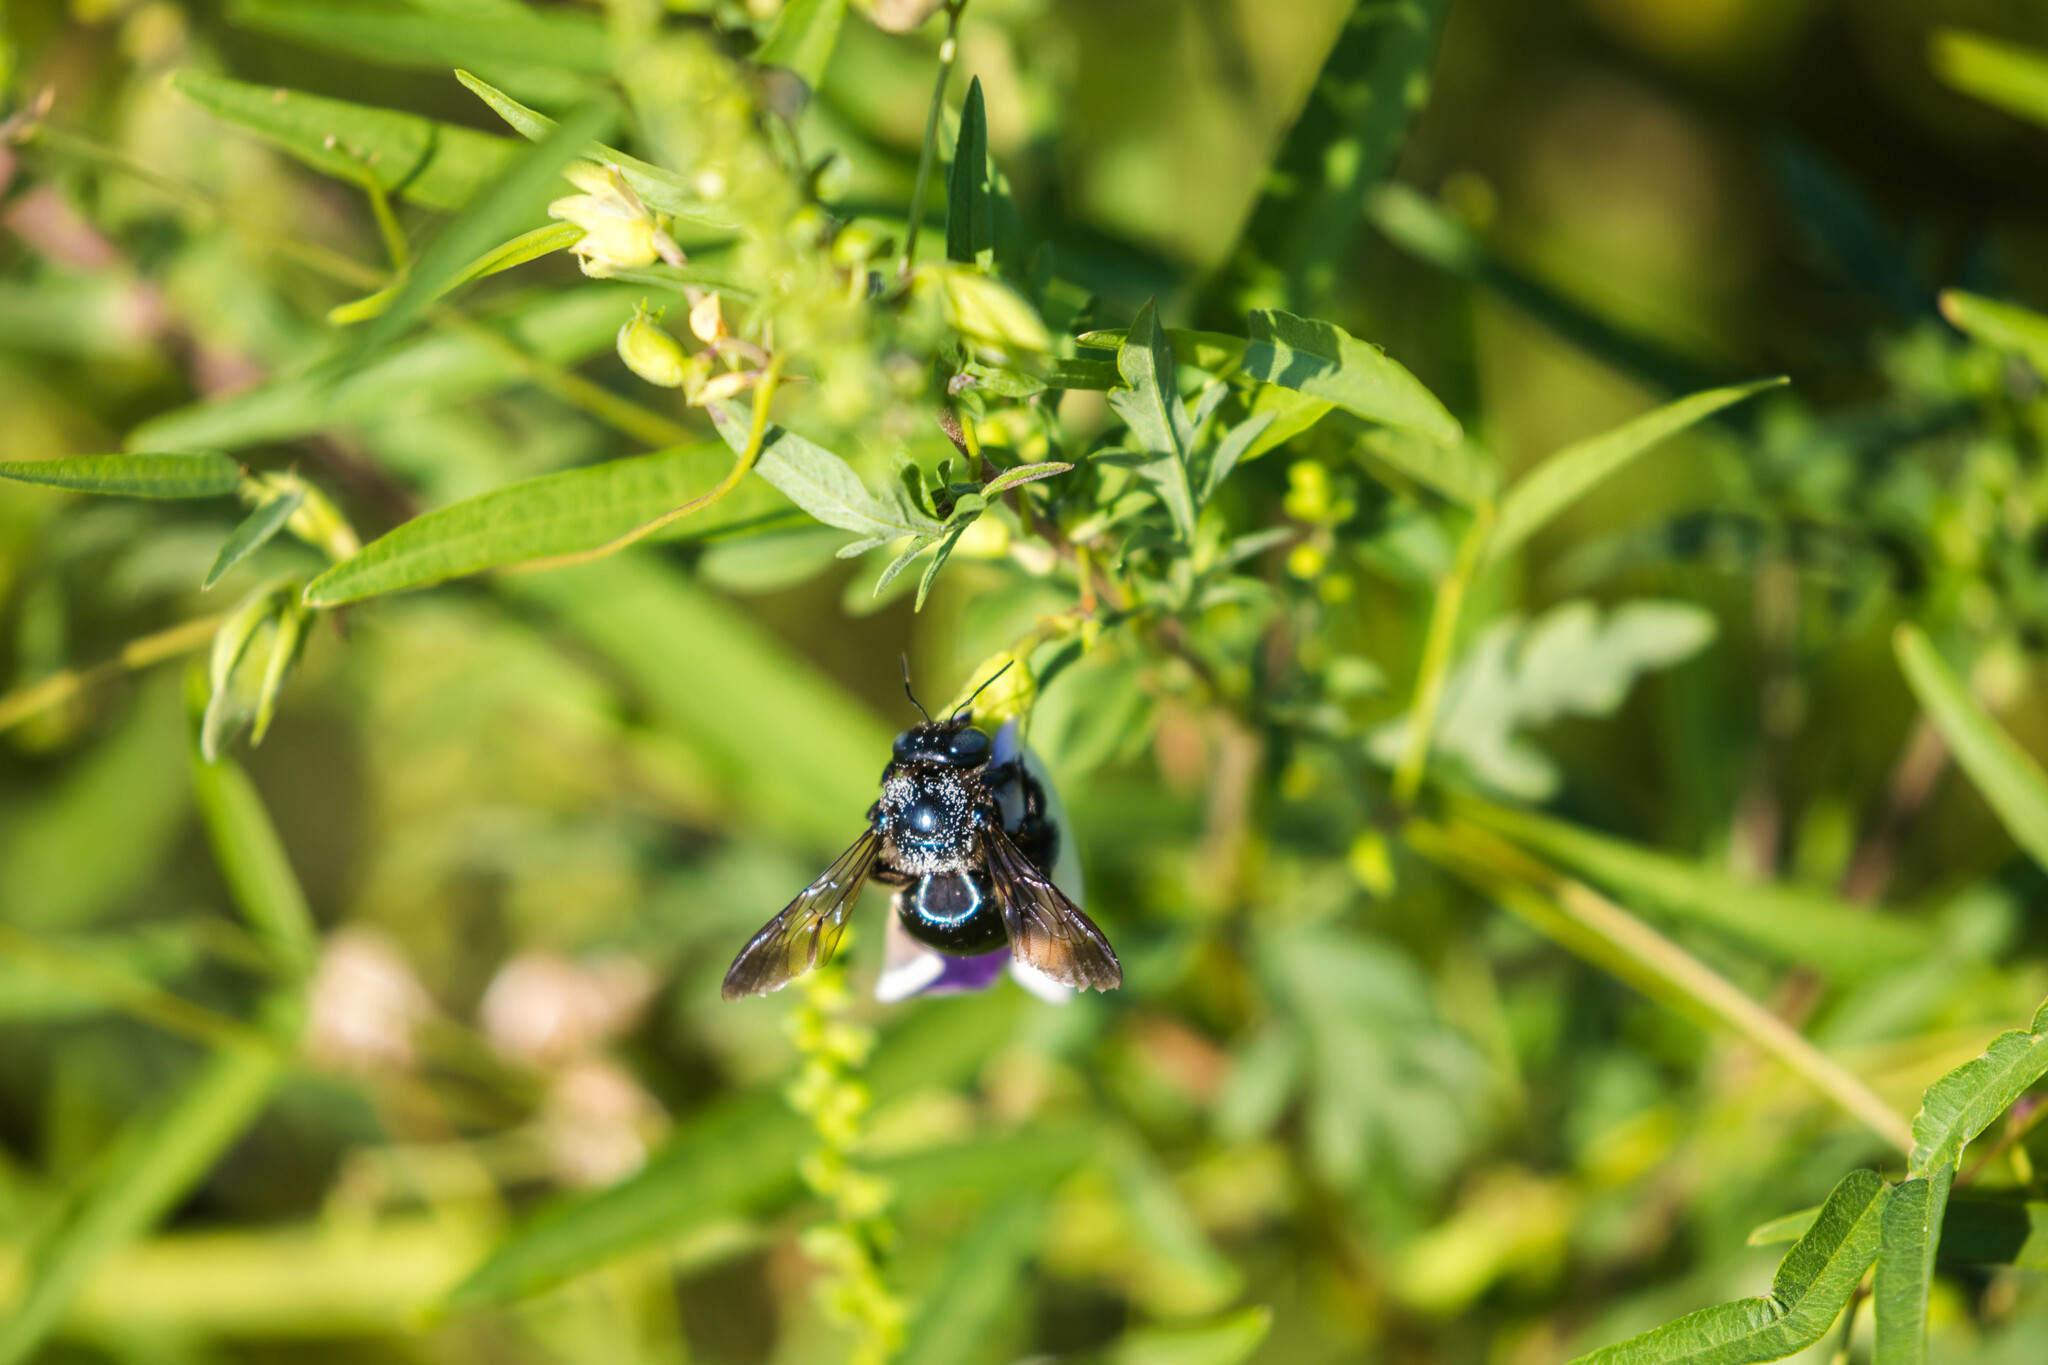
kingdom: Animalia
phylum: Arthropoda
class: Insecta
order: Hymenoptera
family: Apidae
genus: Xylocopa
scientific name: Xylocopa micans
